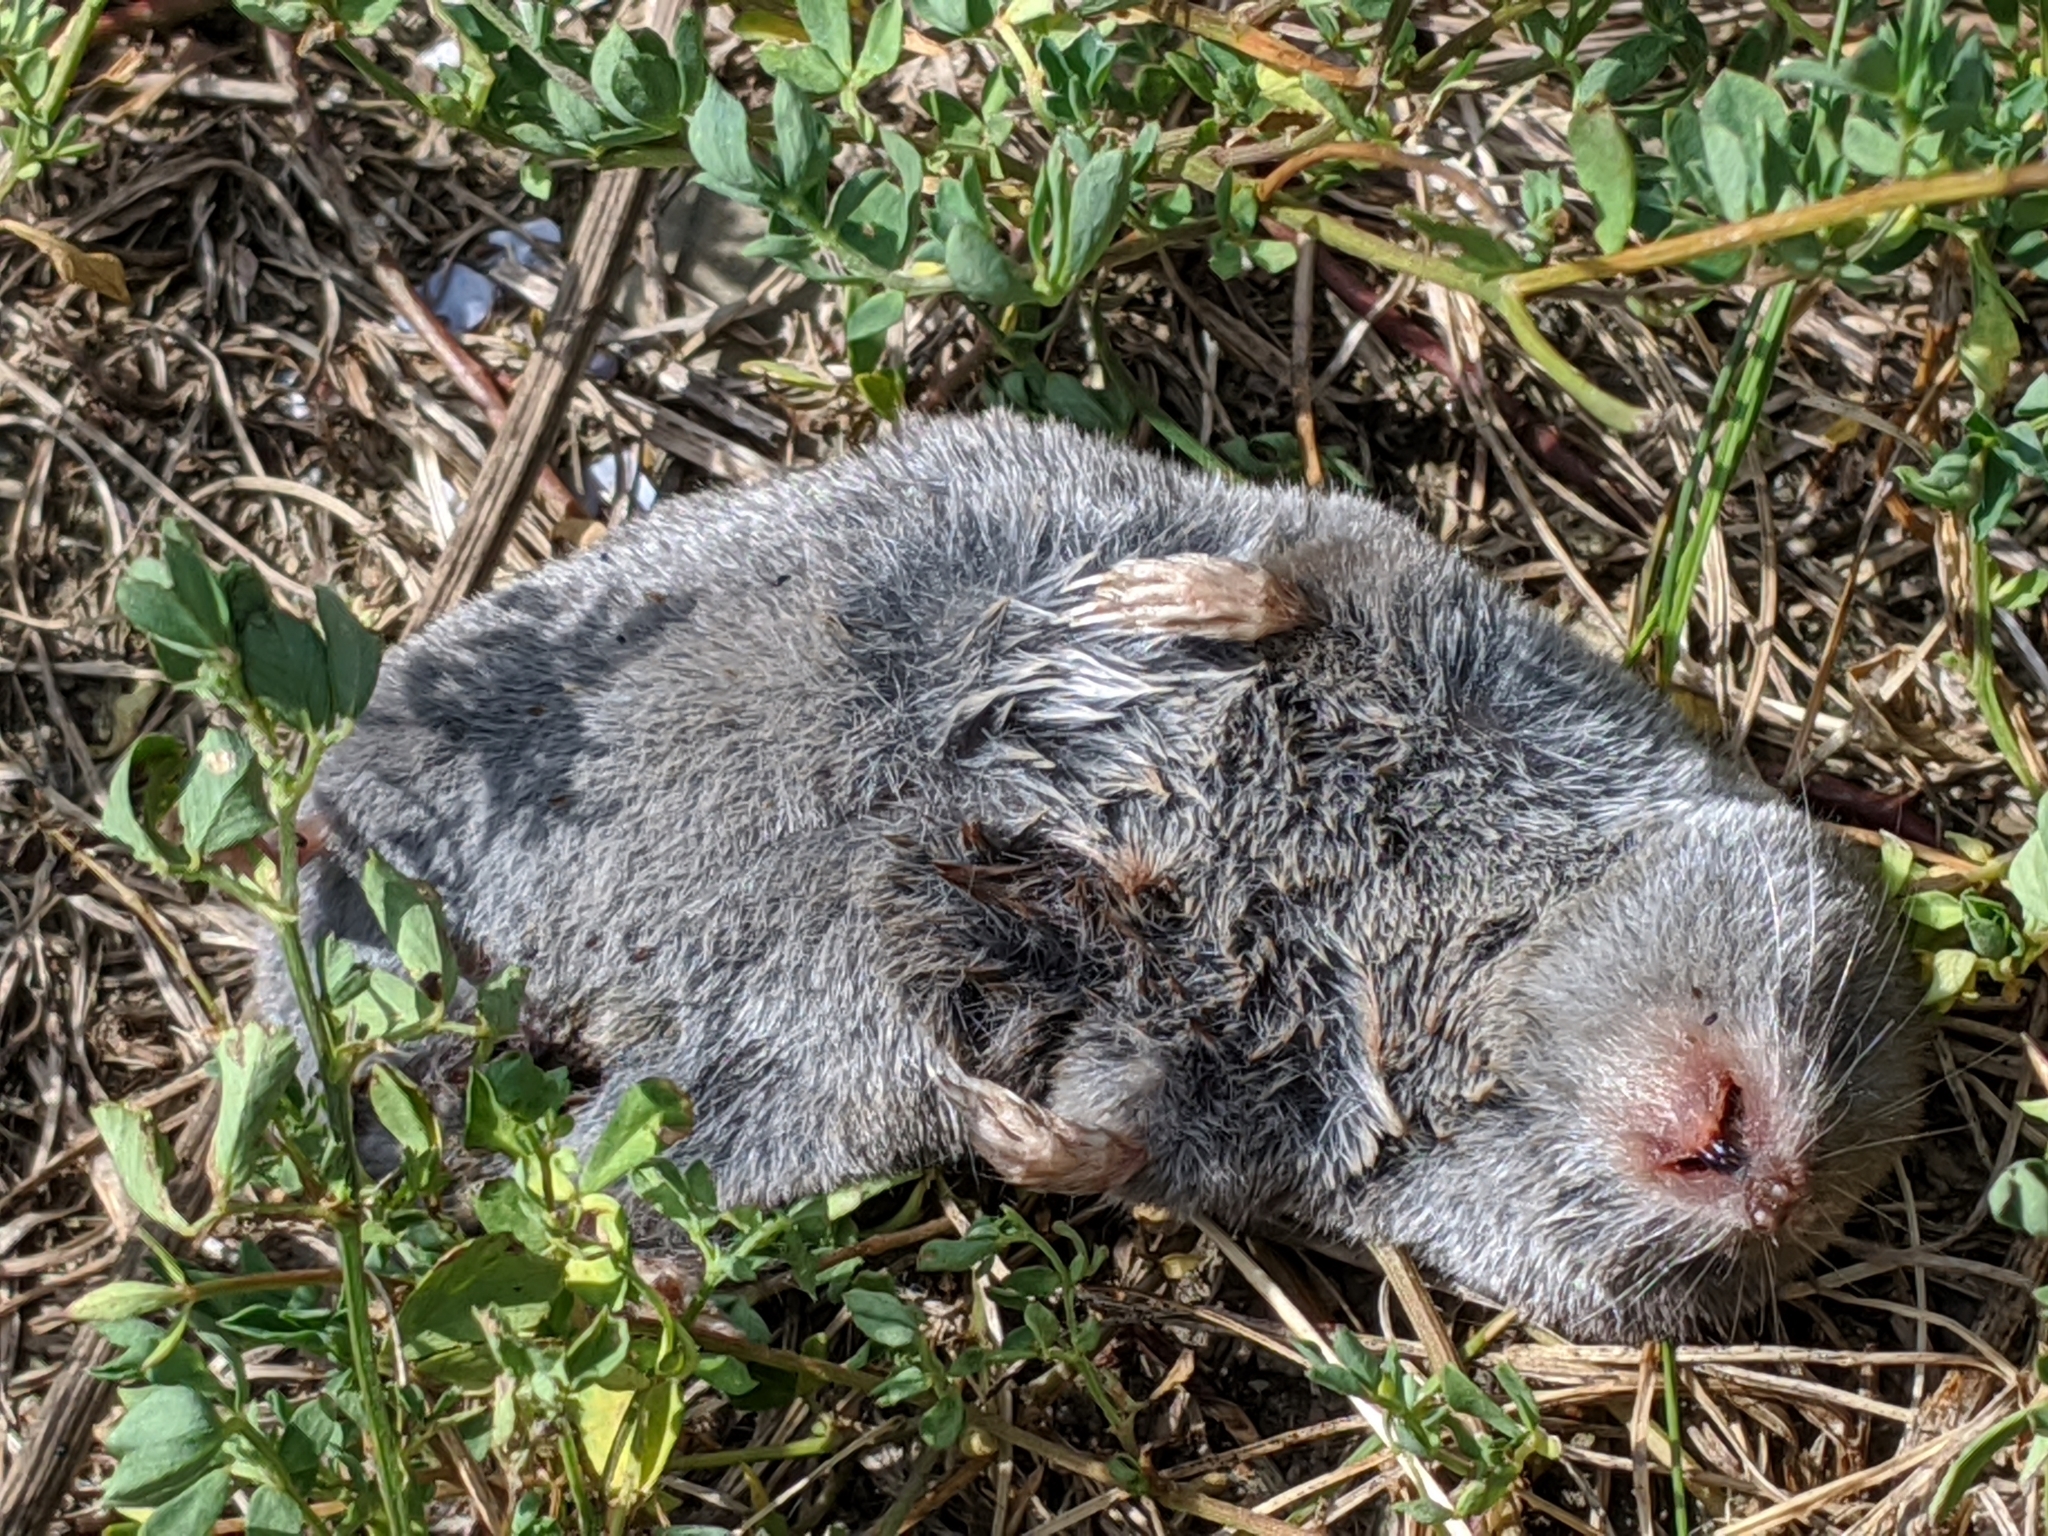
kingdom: Animalia
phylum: Chordata
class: Mammalia
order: Soricomorpha
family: Soricidae
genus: Blarina
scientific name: Blarina brevicauda
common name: Northern short-tailed shrew
